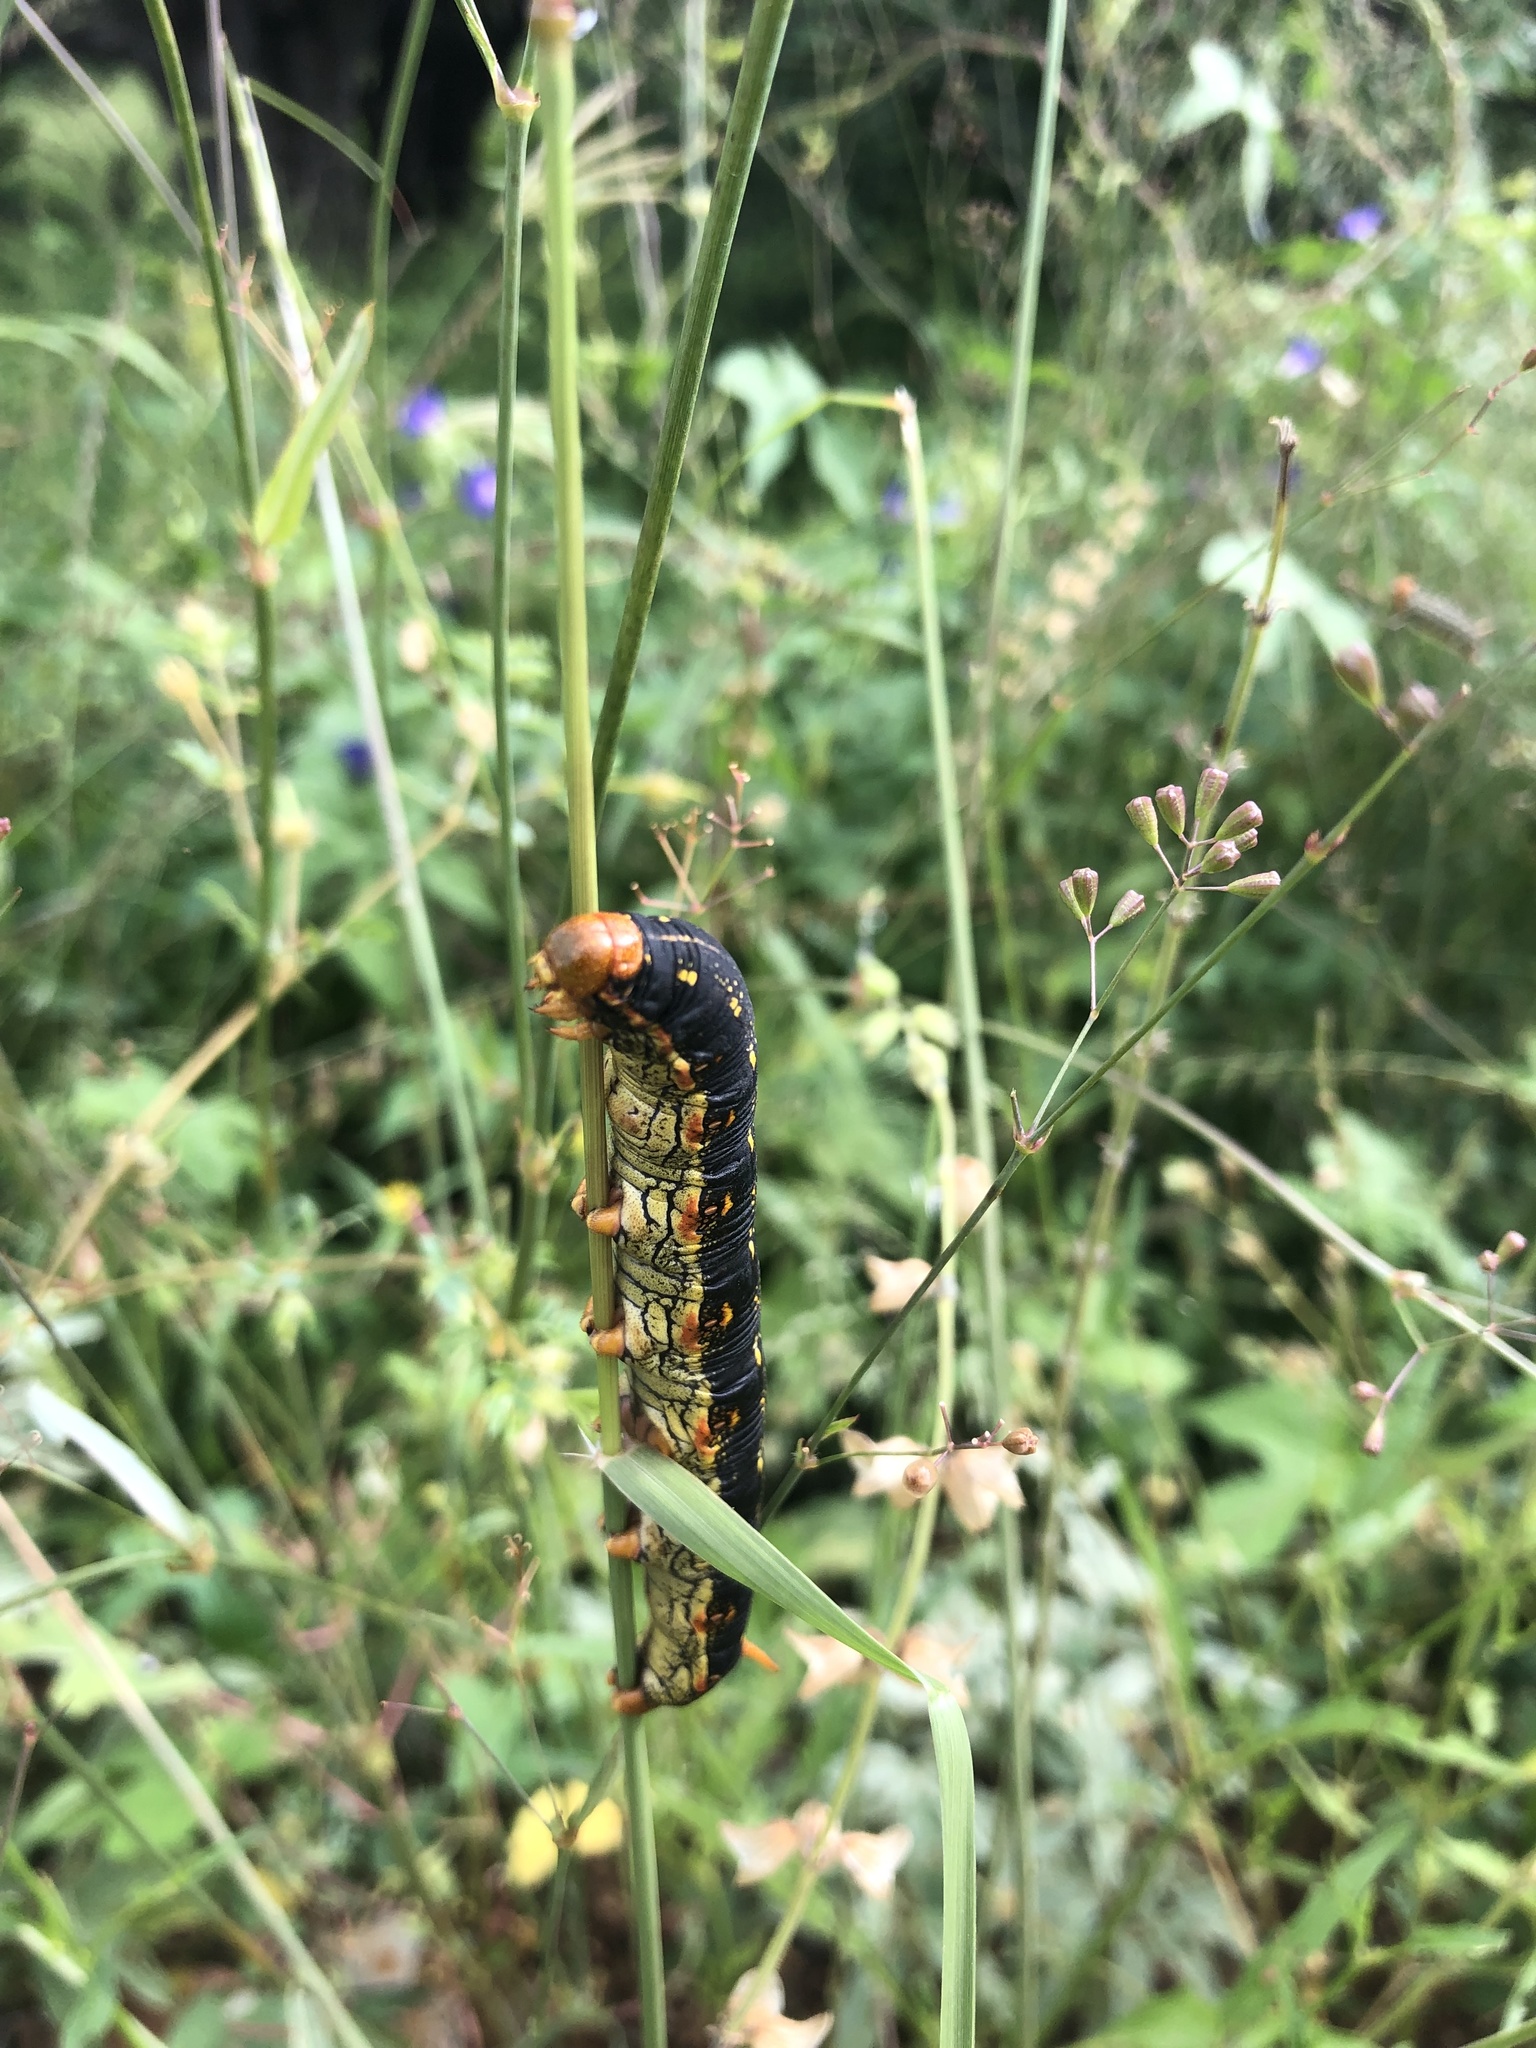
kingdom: Animalia
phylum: Arthropoda
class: Insecta
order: Lepidoptera
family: Sphingidae
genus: Hyles
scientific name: Hyles lineata
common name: White-lined sphinx
